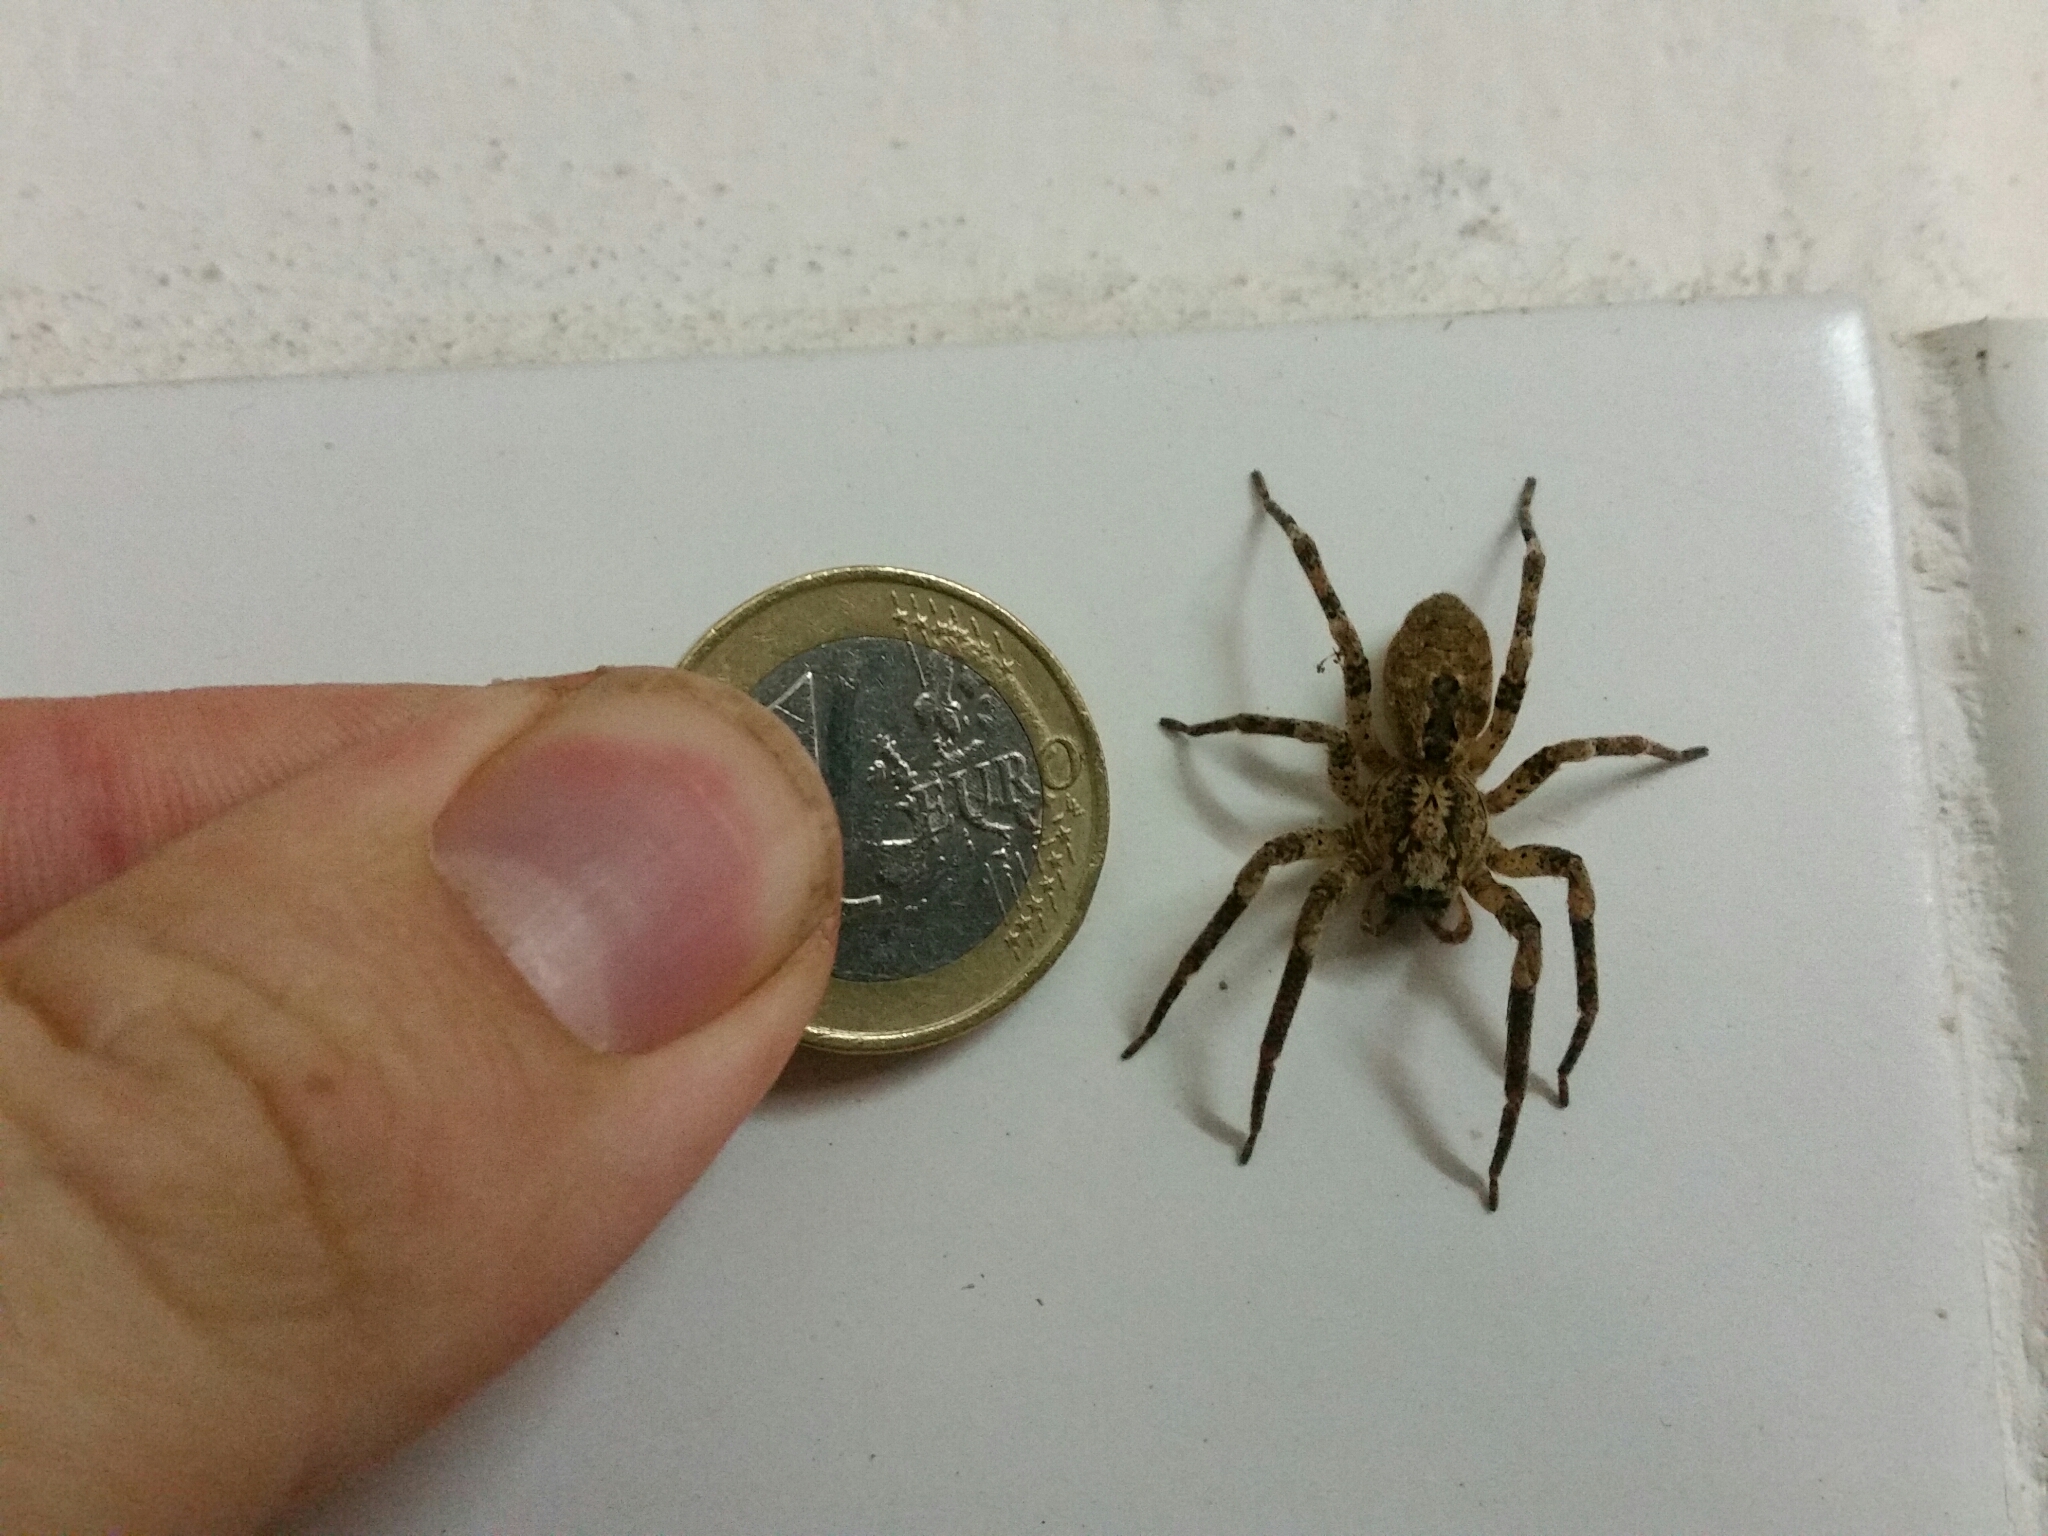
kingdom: Animalia
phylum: Arthropoda
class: Arachnida
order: Araneae
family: Zoropsidae
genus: Zoropsis
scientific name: Zoropsis spinimana
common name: Zoropsid spider
